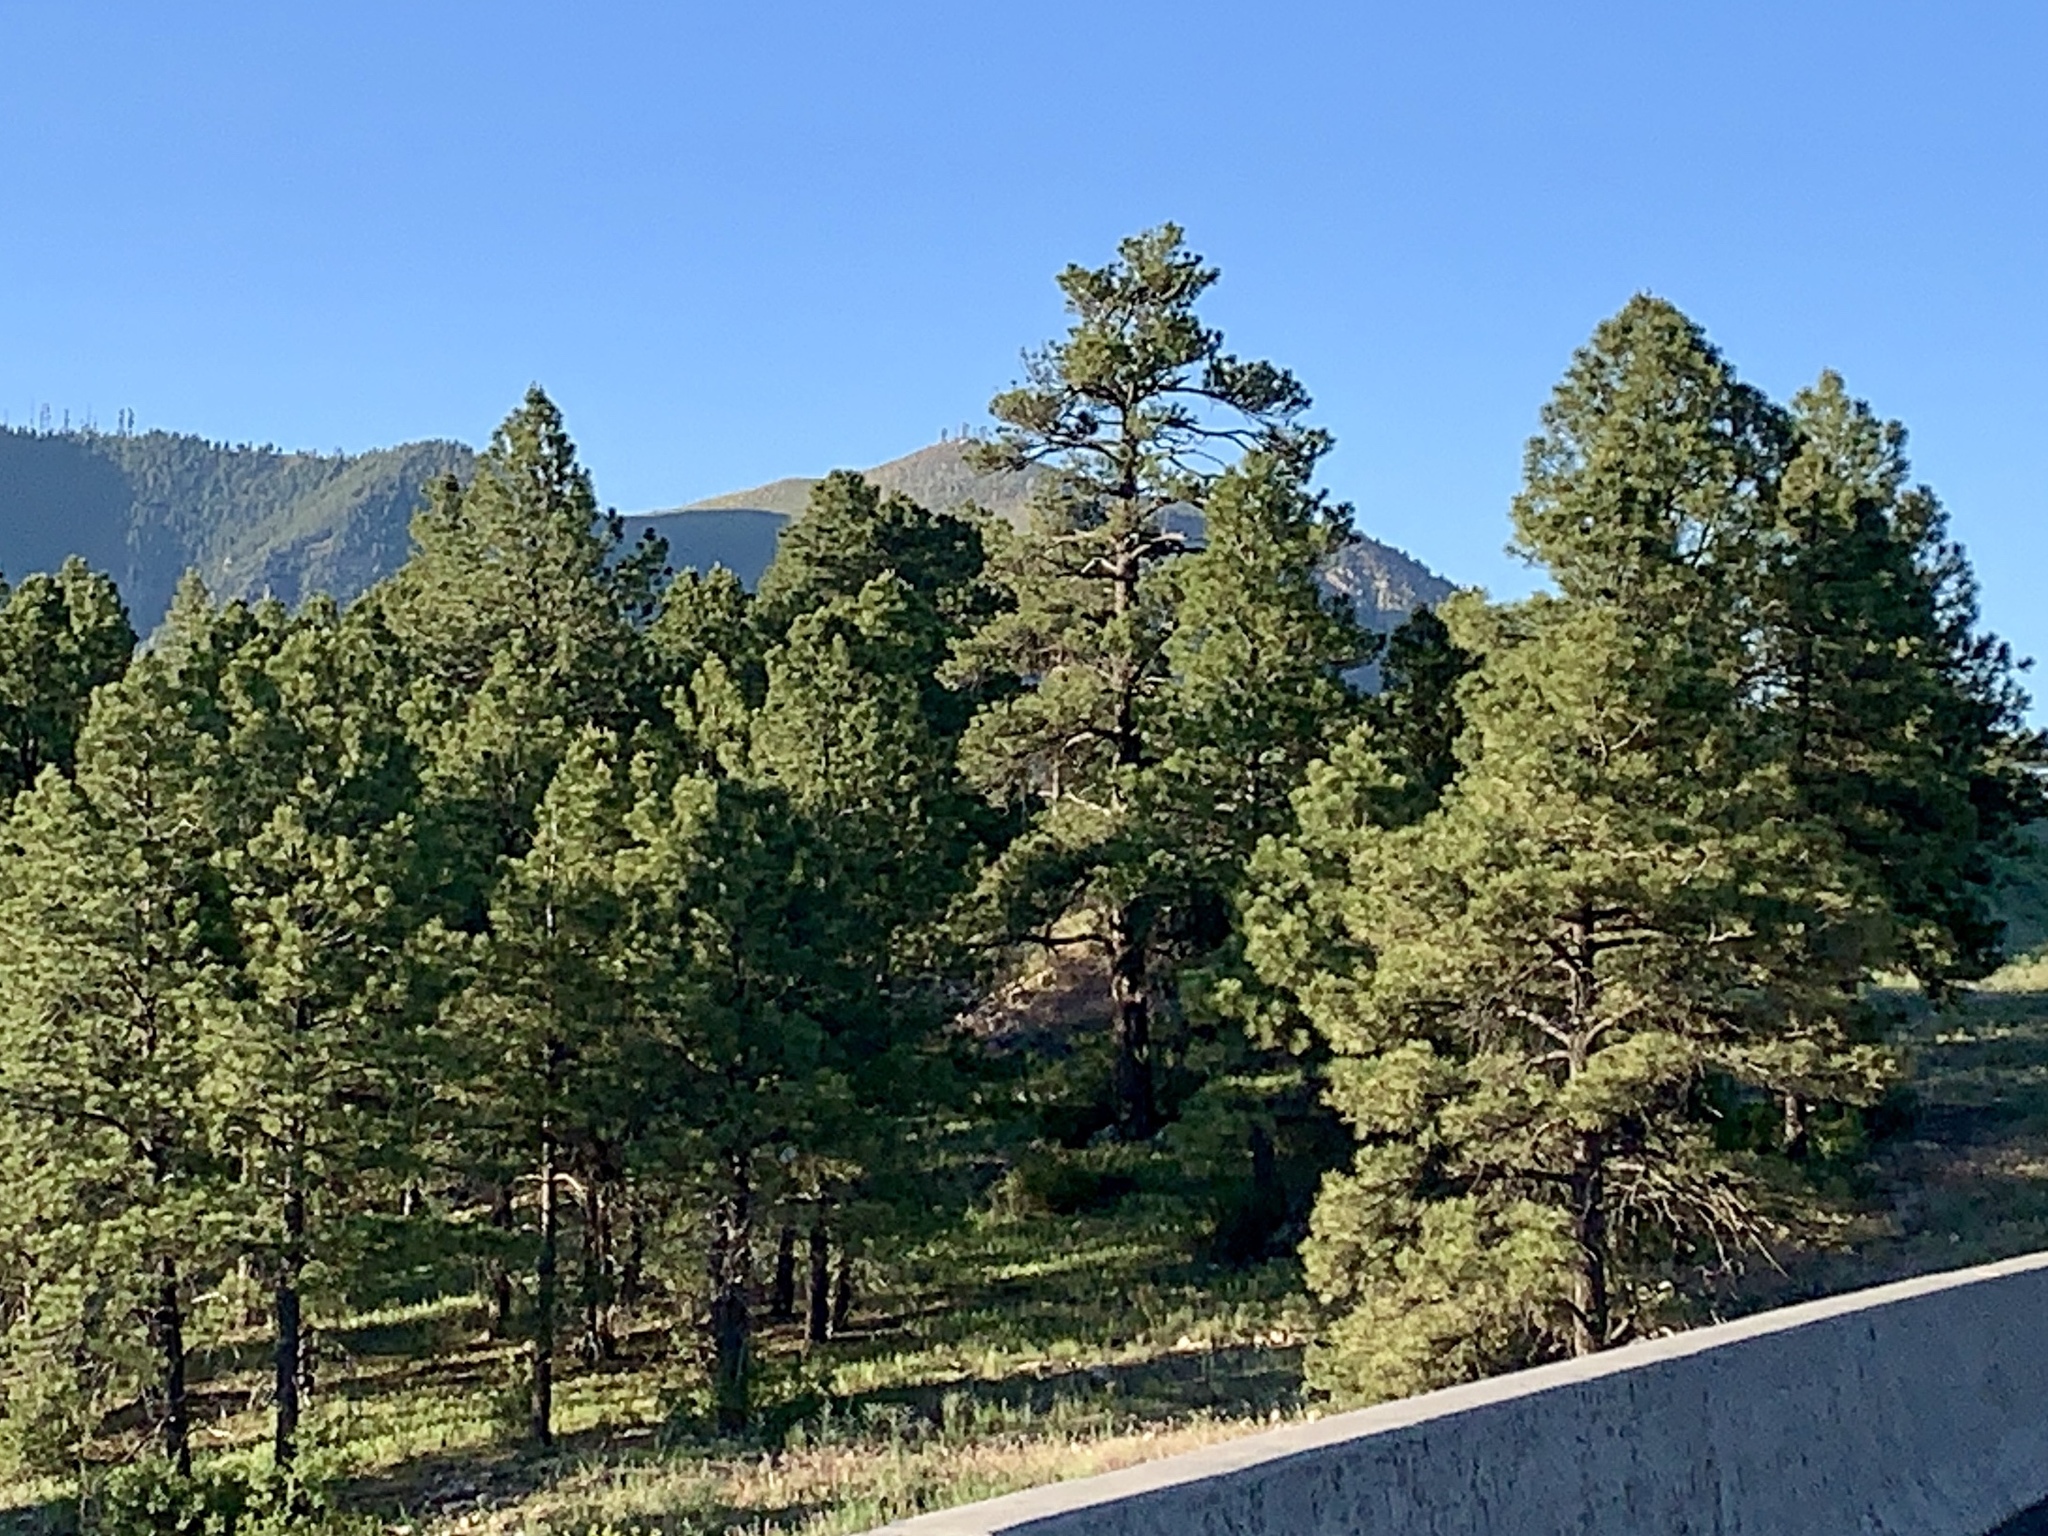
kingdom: Plantae
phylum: Tracheophyta
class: Pinopsida
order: Pinales
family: Pinaceae
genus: Pinus
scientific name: Pinus ponderosa
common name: Western yellow-pine
